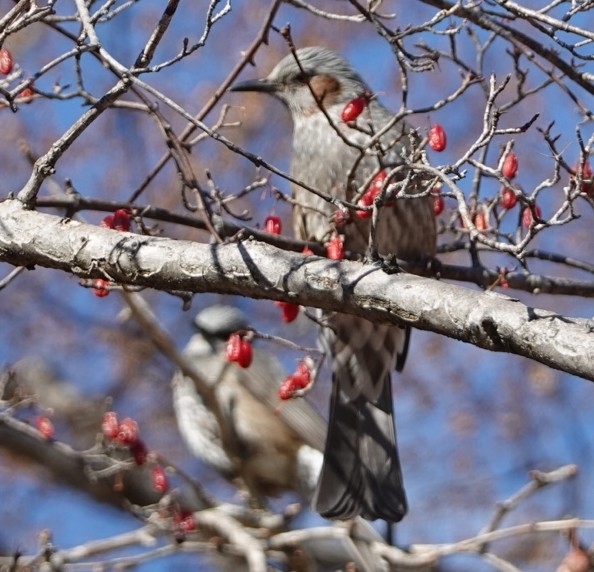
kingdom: Animalia
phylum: Chordata
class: Aves
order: Passeriformes
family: Pycnonotidae
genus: Hypsipetes
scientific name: Hypsipetes amaurotis
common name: Brown-eared bulbul
